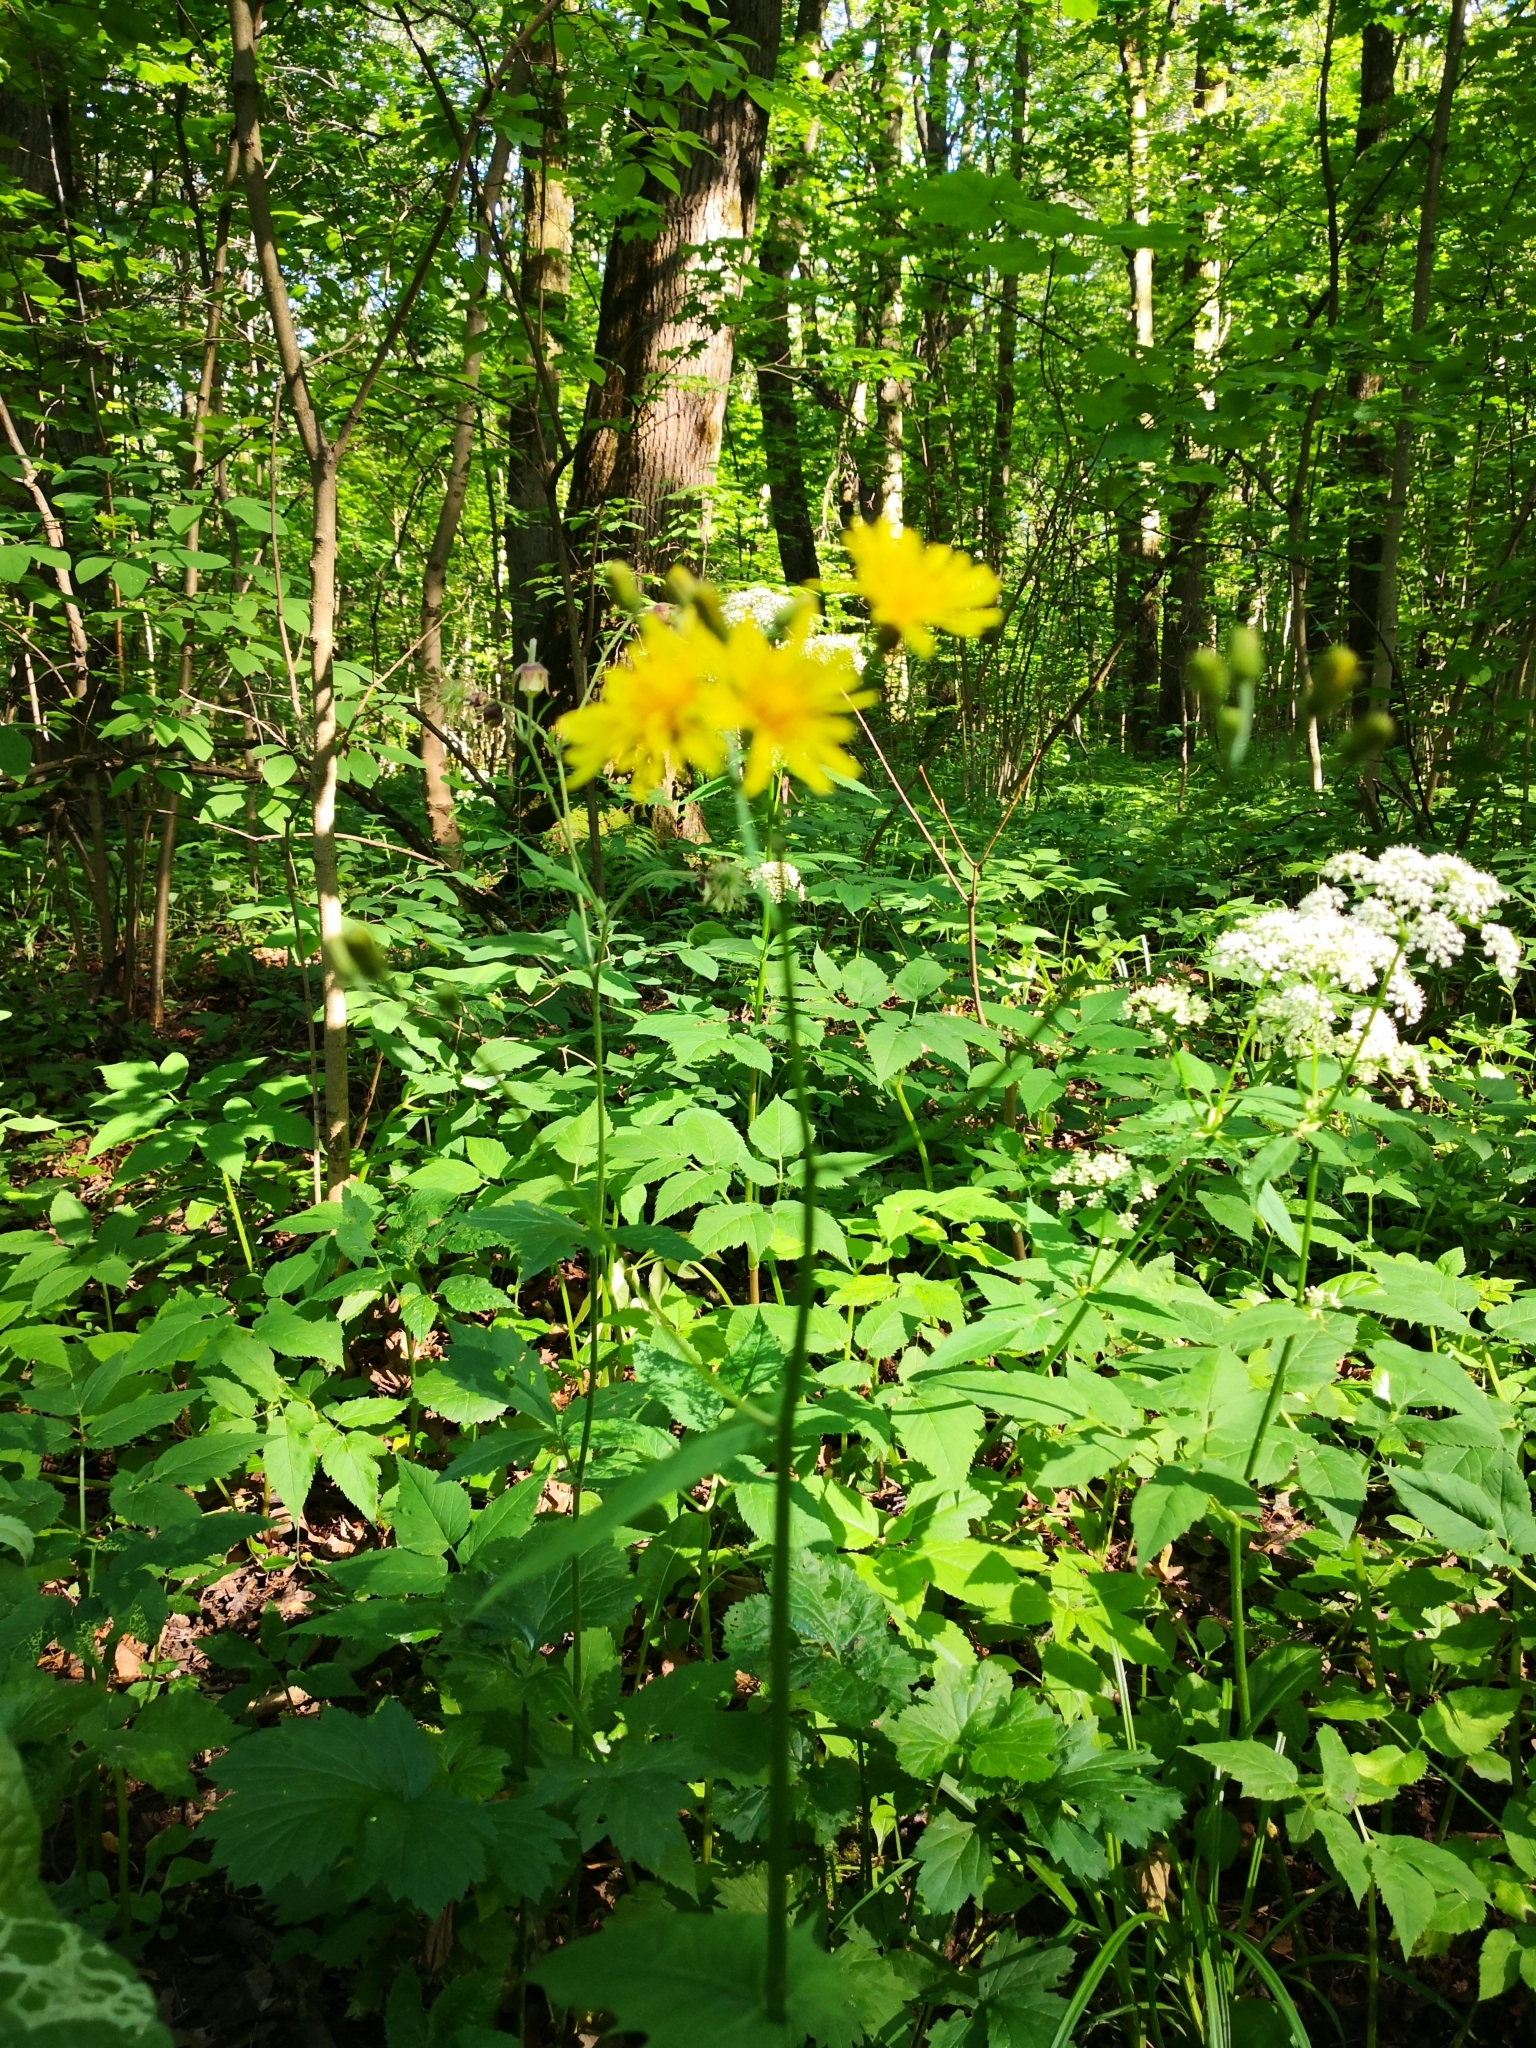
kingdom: Plantae
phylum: Tracheophyta
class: Magnoliopsida
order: Asterales
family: Asteraceae
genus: Crepis
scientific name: Crepis paludosa
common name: Marsh hawk's-beard
